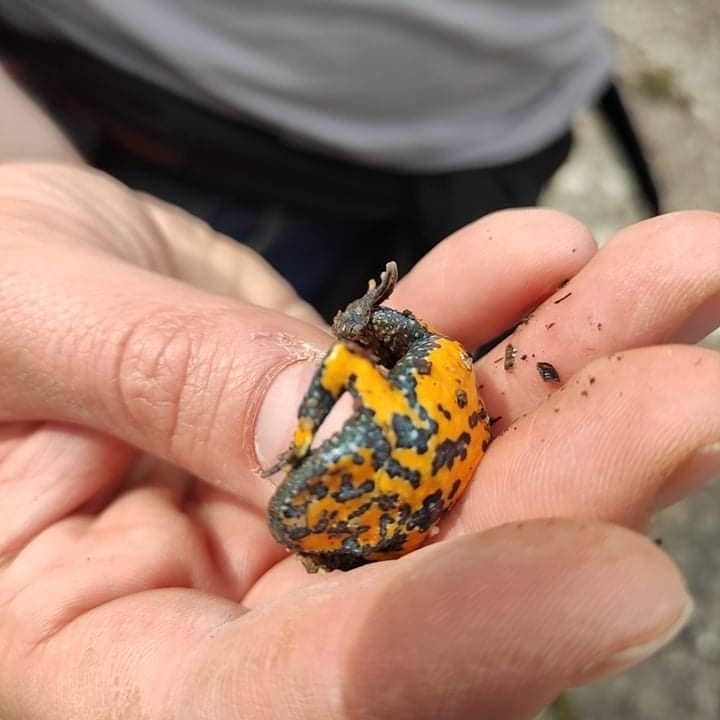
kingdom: Animalia
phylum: Chordata
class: Amphibia
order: Anura
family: Bombinatoridae
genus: Bombina
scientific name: Bombina variegata
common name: Yellow-bellied toad
